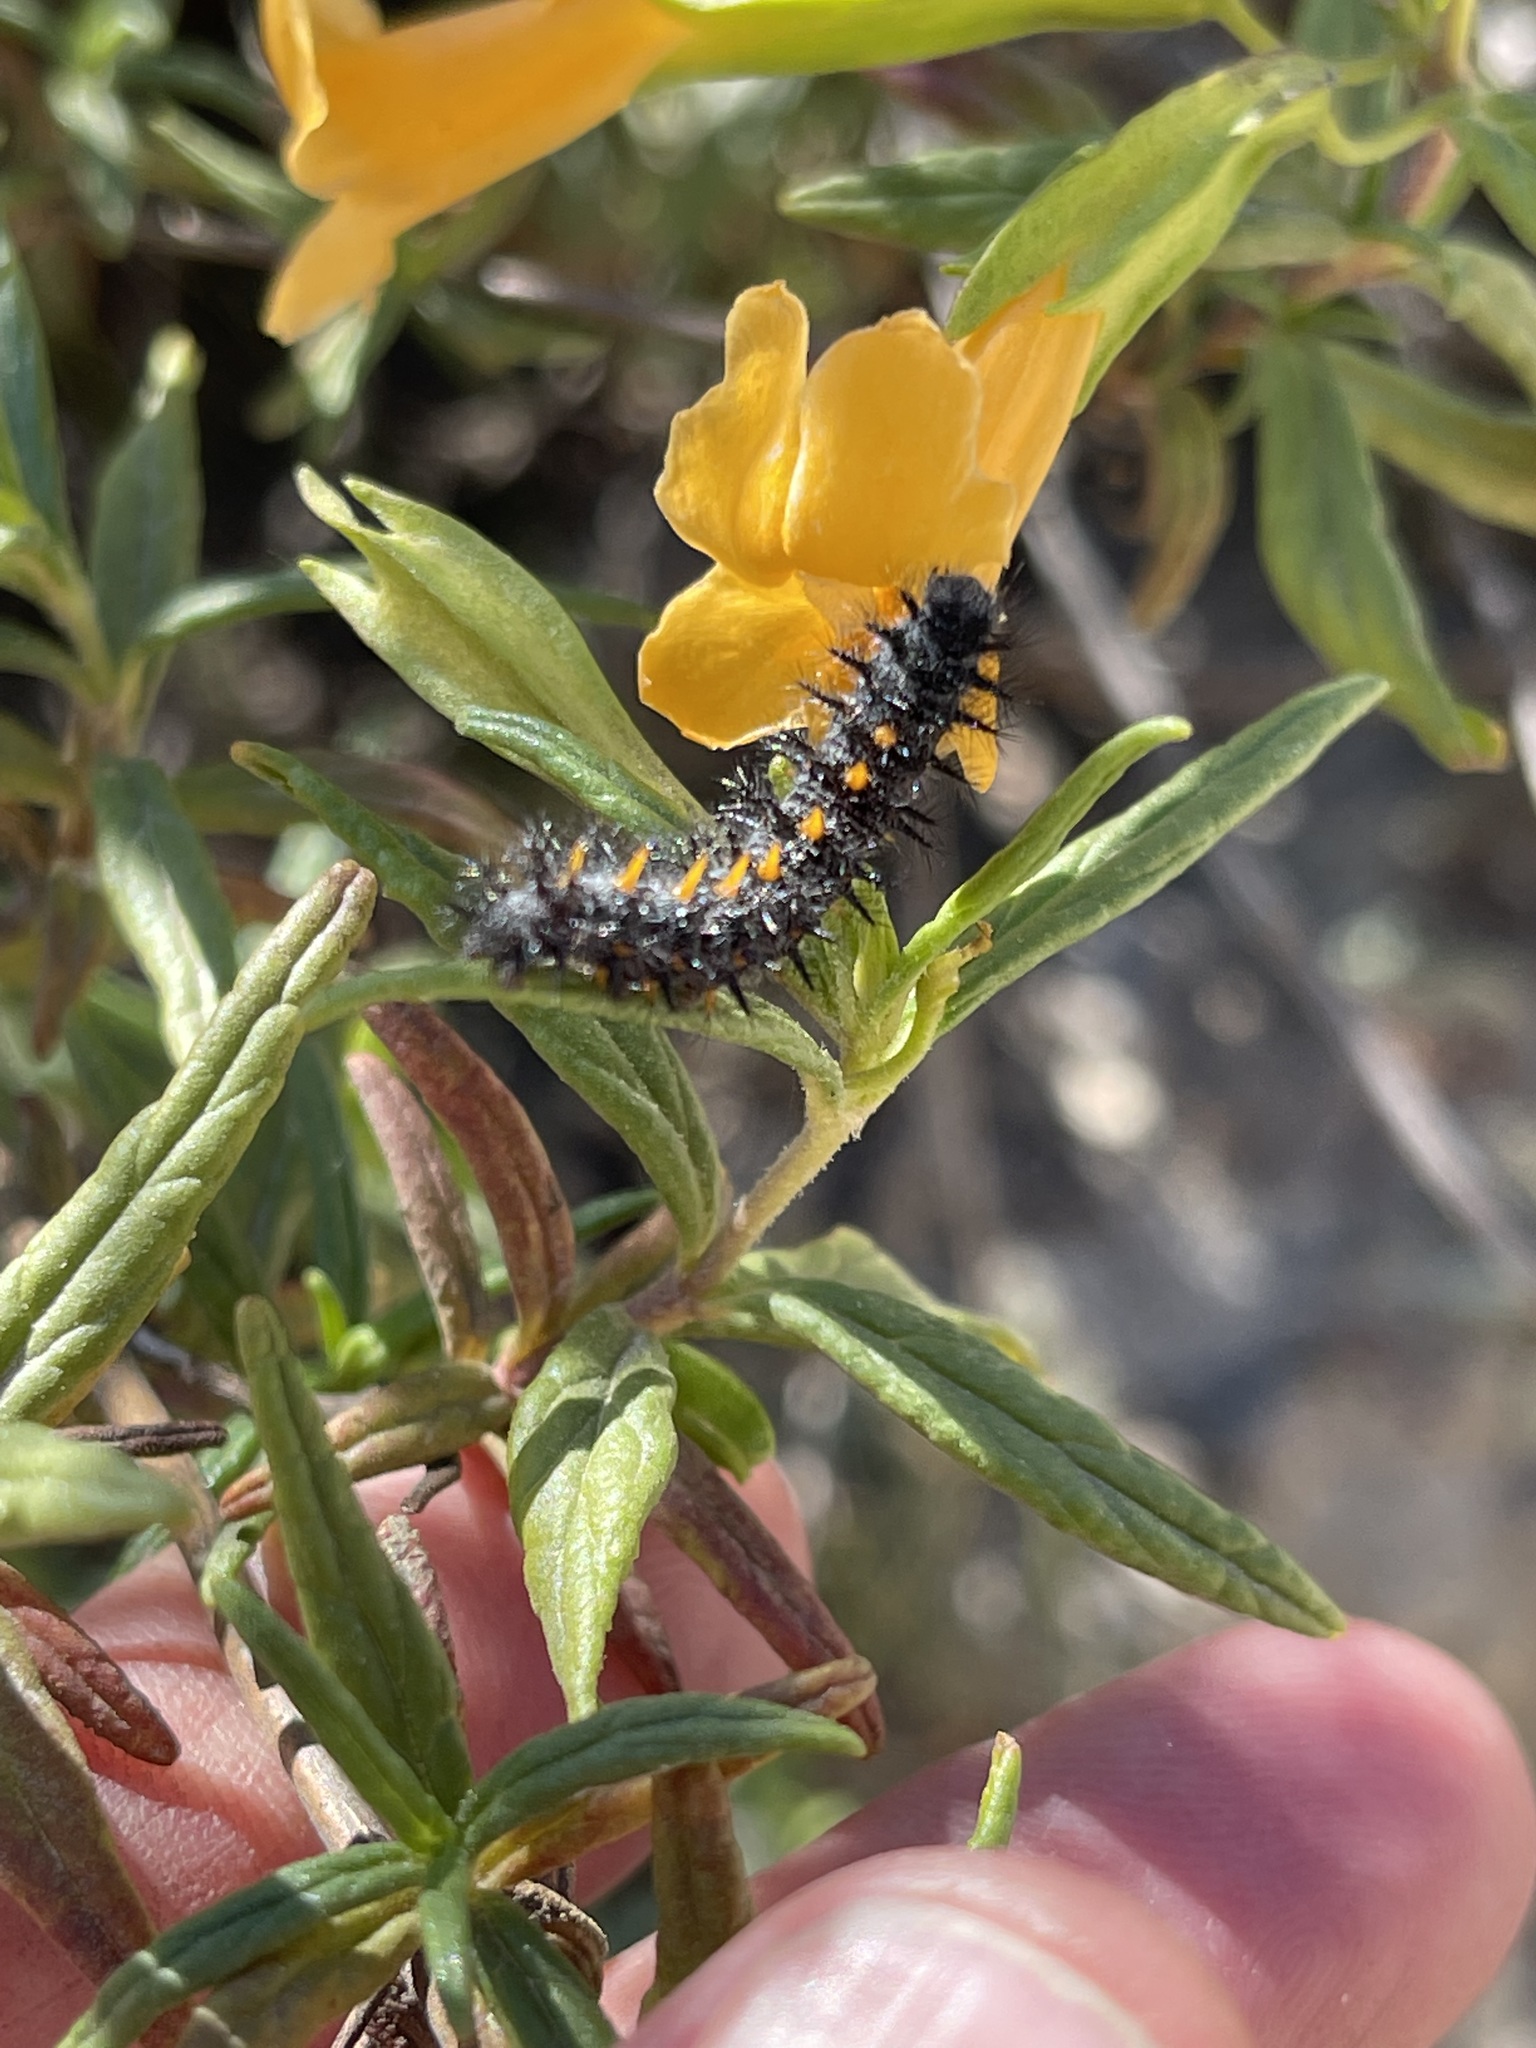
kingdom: Animalia
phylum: Arthropoda
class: Insecta
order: Lepidoptera
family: Nymphalidae
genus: Occidryas
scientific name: Occidryas chalcedona
